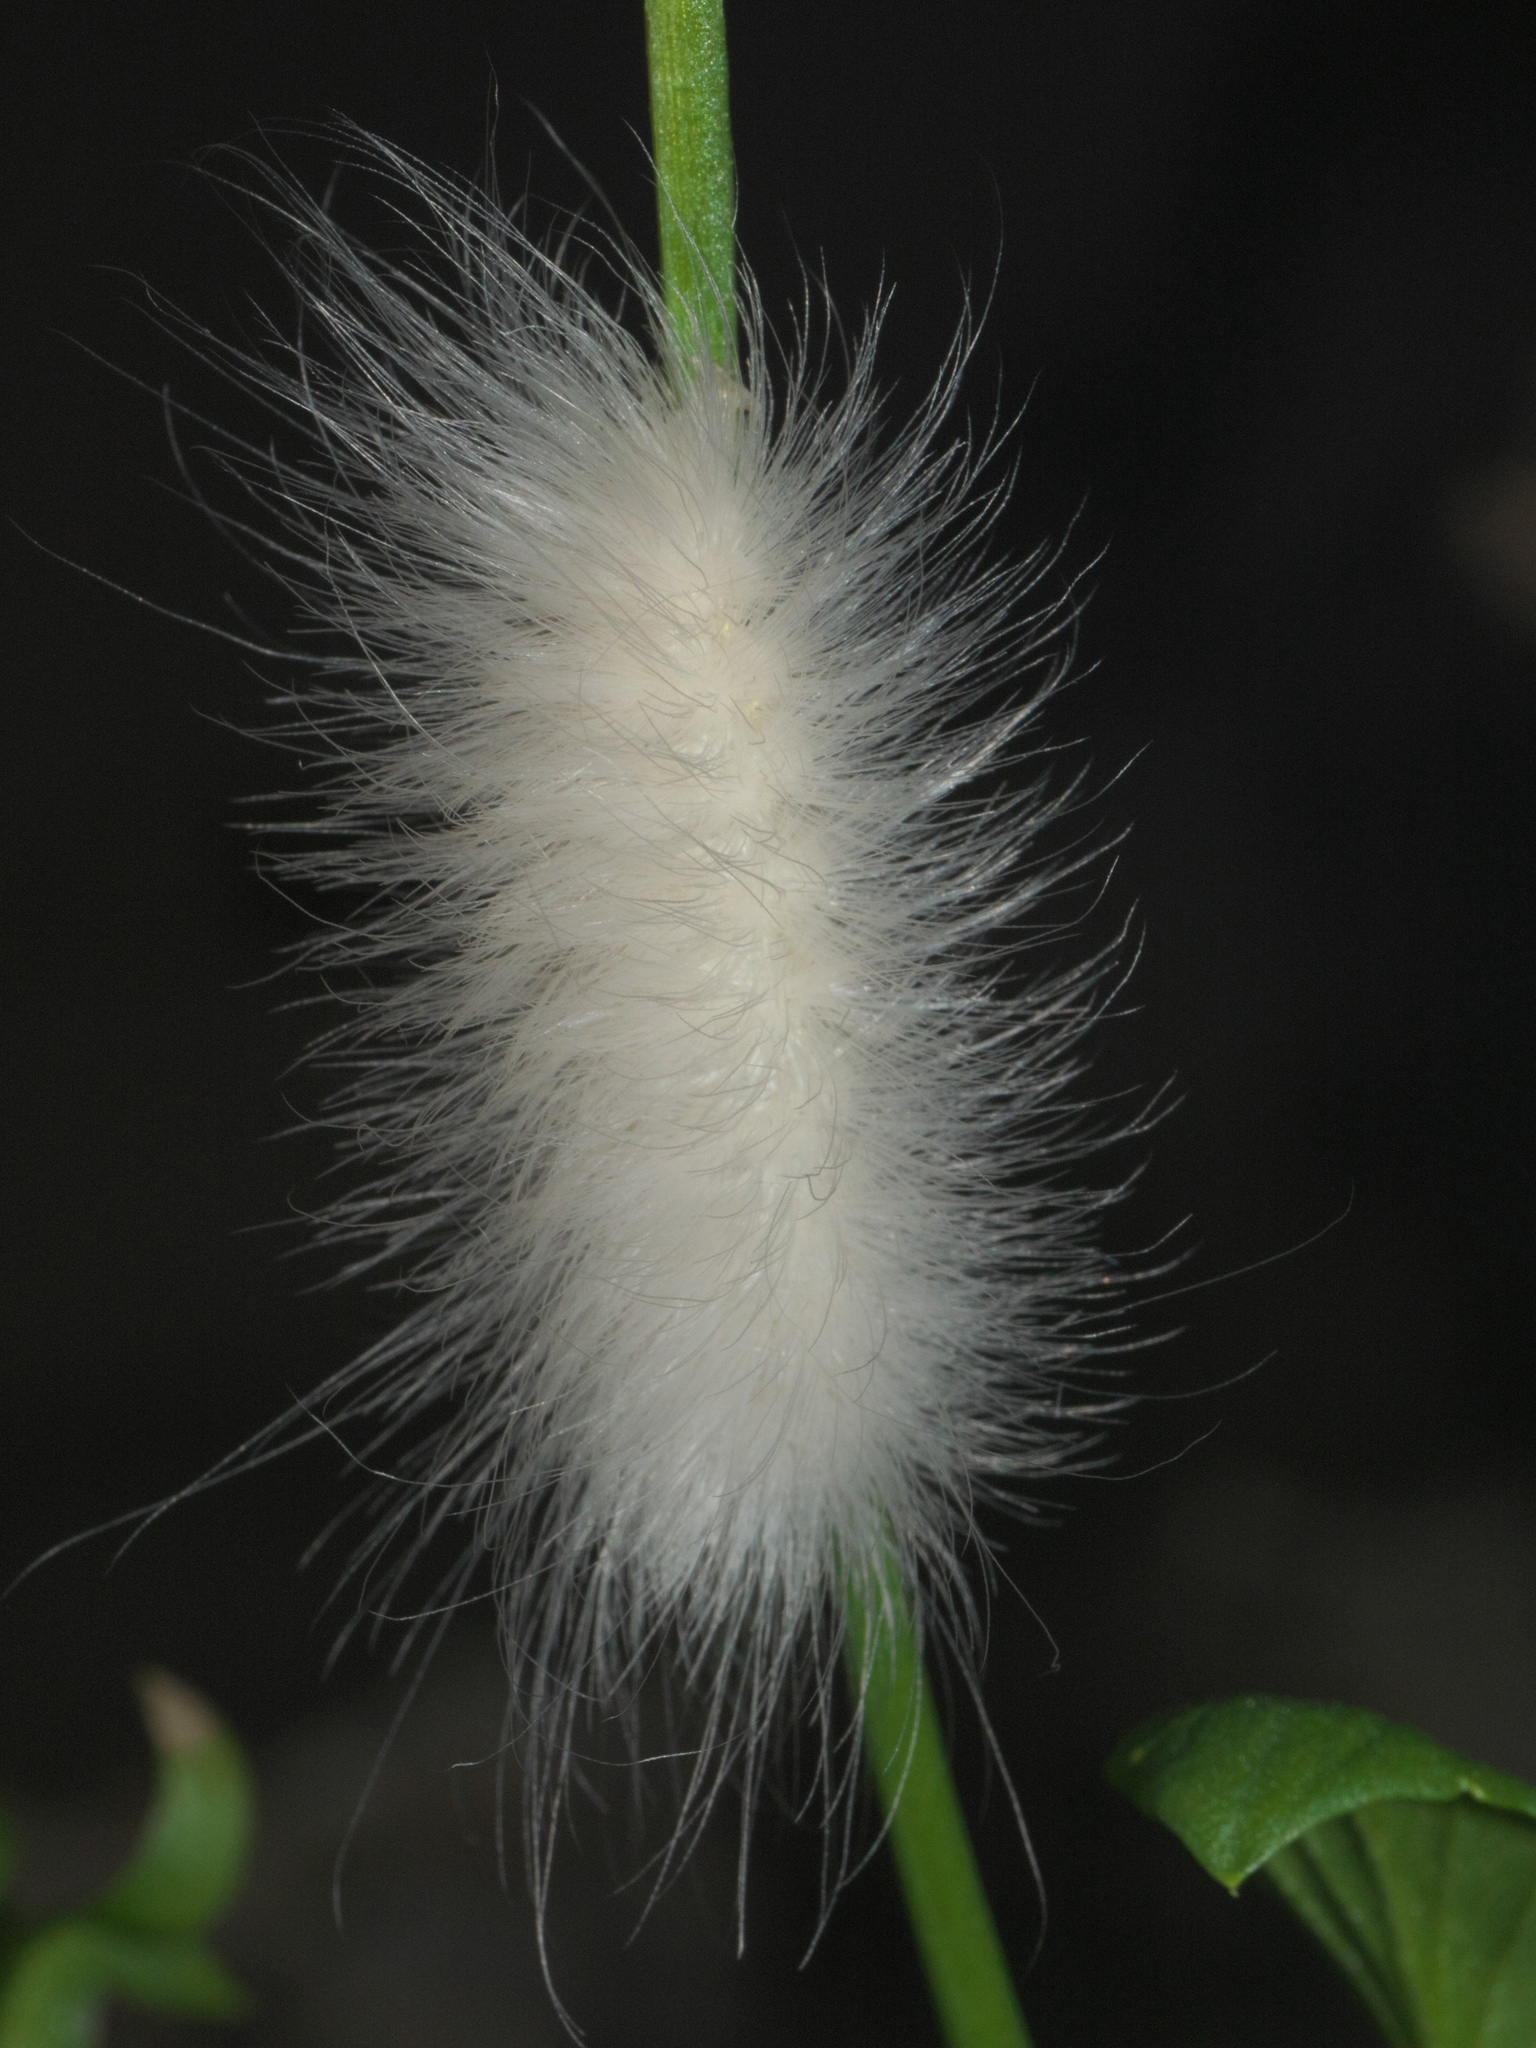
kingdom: Animalia
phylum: Arthropoda
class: Insecta
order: Lepidoptera
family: Erebidae
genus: Spilosoma
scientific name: Spilosoma virginica
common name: Virginia tiger moth
